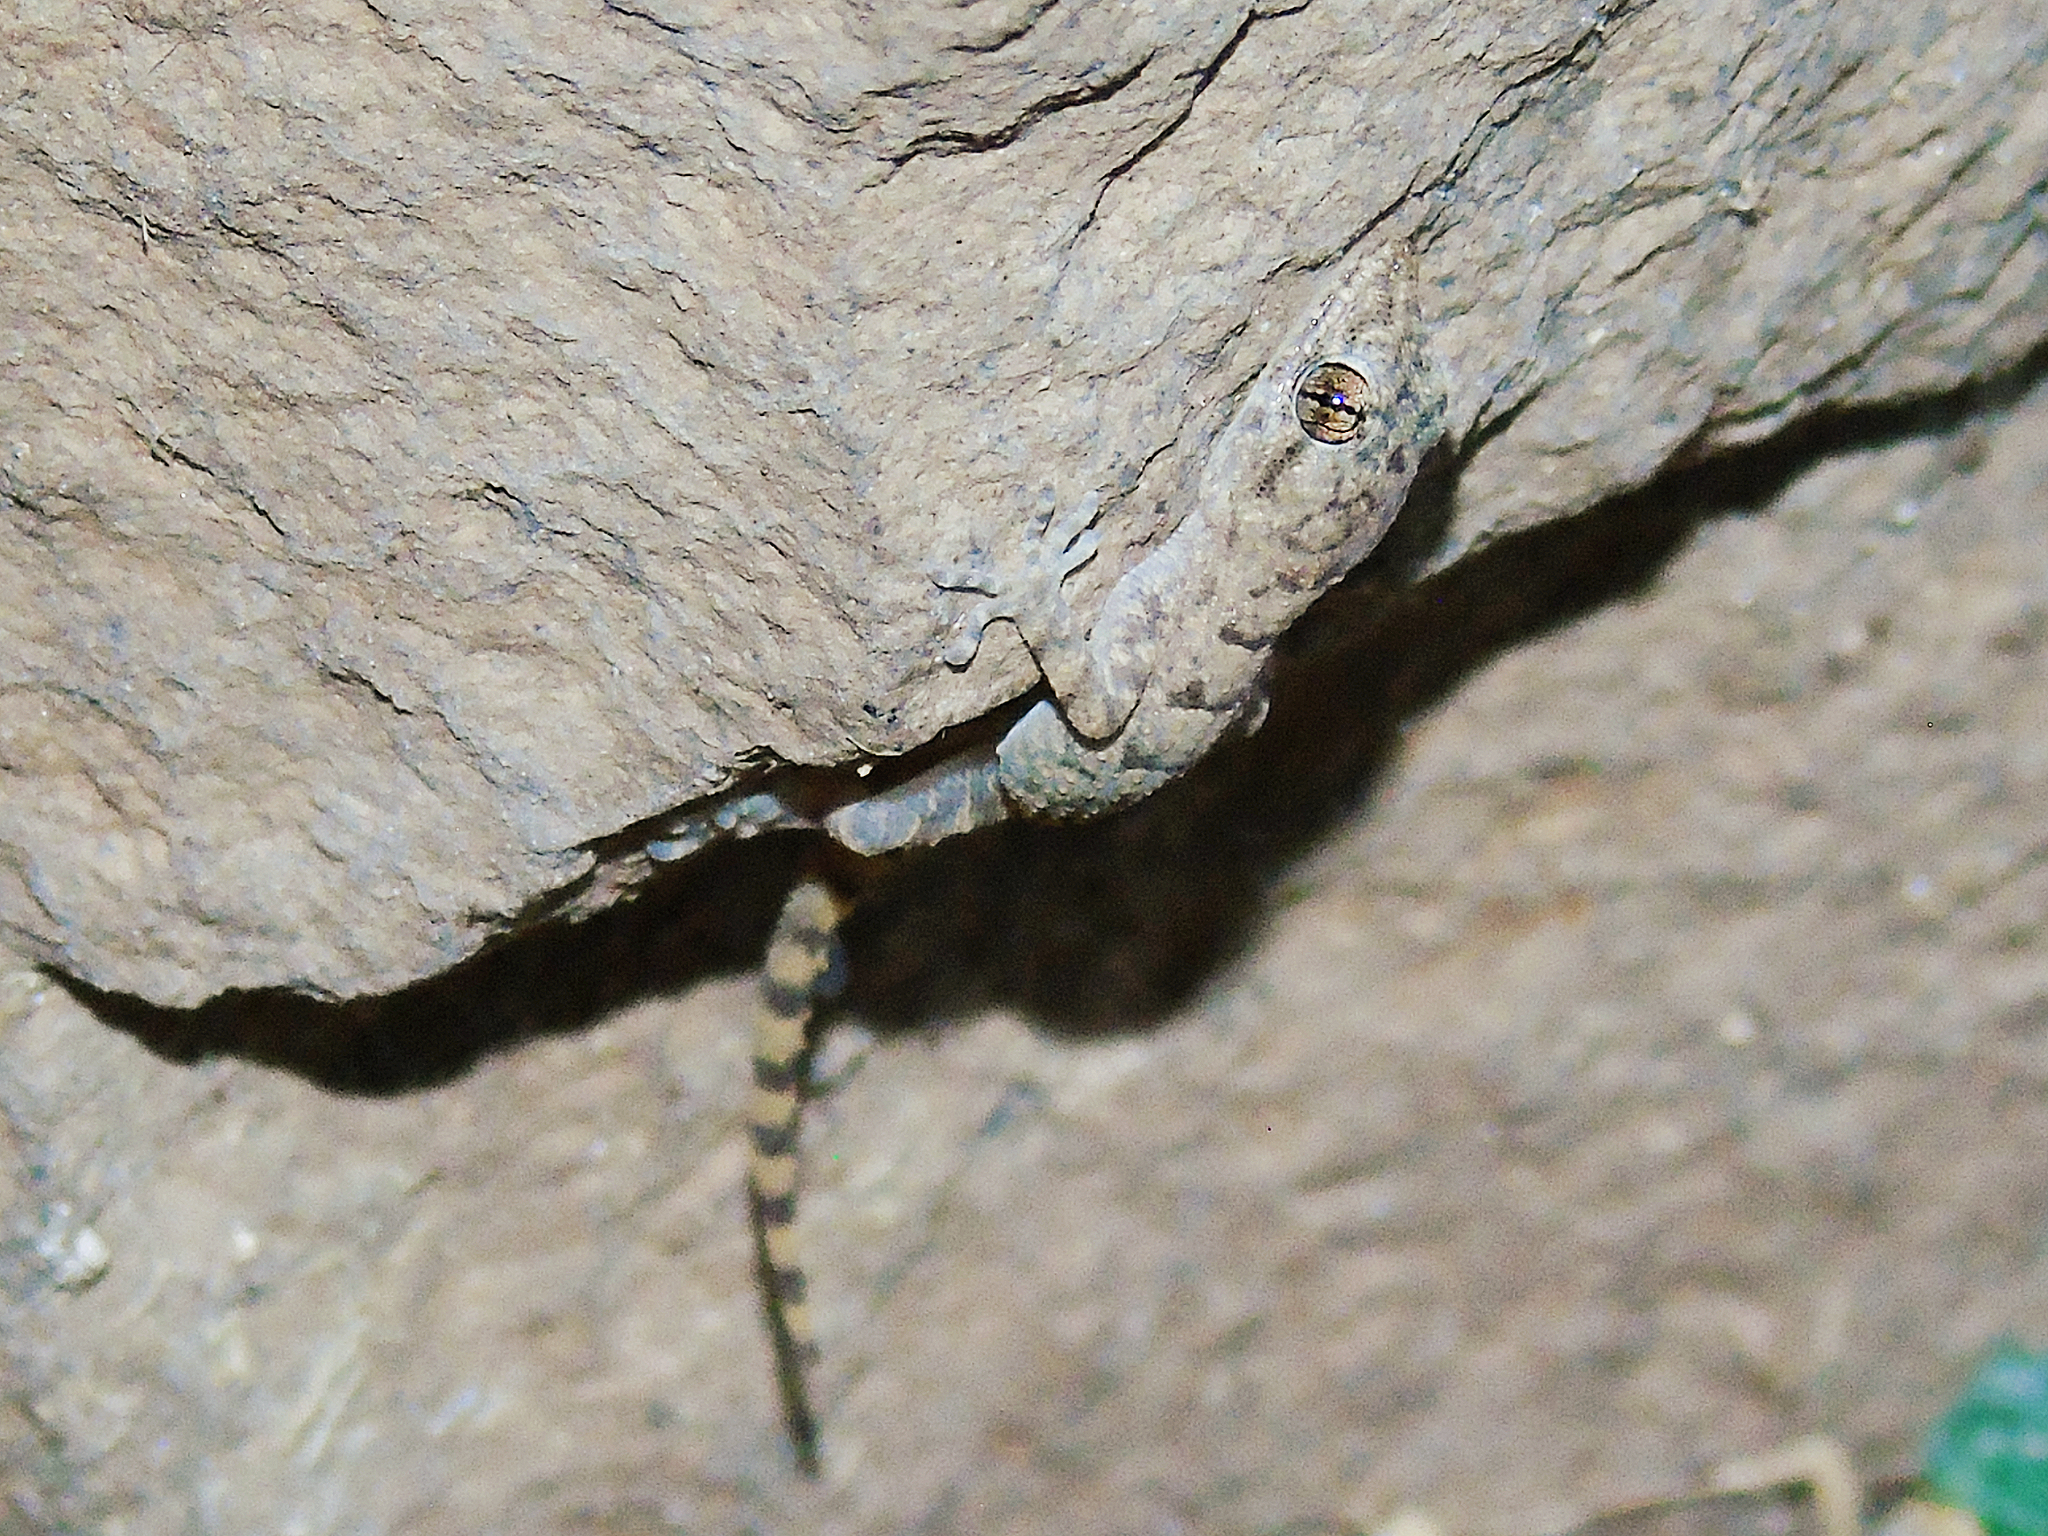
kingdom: Animalia
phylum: Chordata
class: Squamata
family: Gekkonidae
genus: Mediodactylus
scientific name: Mediodactylus heterocercus
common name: Asia minor thin-toed gecko
